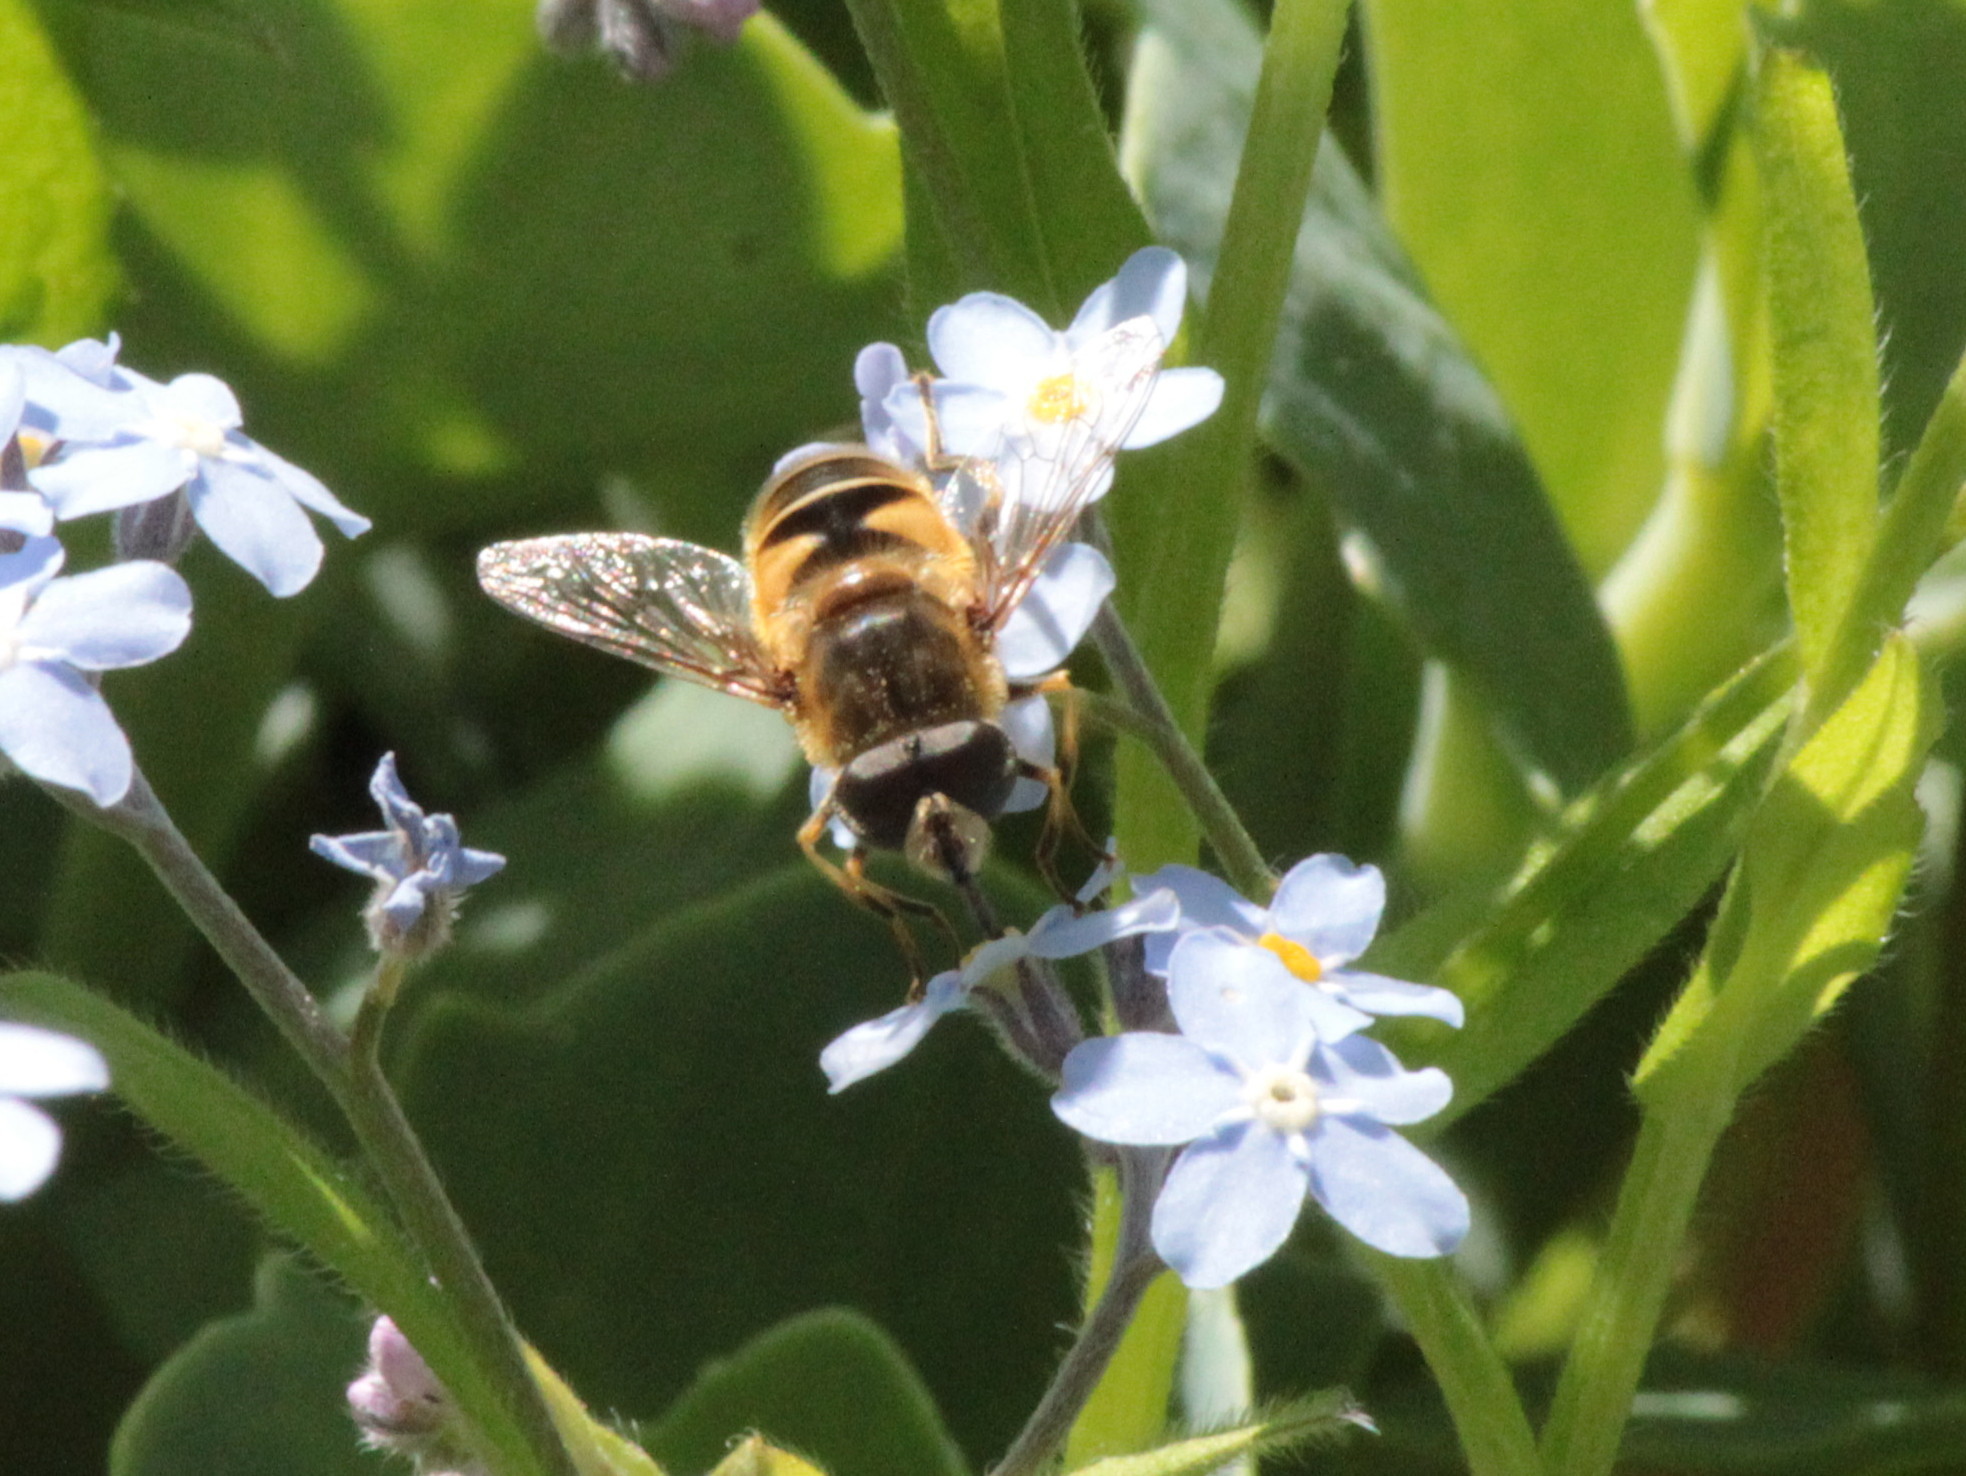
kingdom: Animalia
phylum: Arthropoda
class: Insecta
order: Diptera
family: Syrphidae
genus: Eristalis
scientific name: Eristalis nemorum
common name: Orange-spined drone fly
